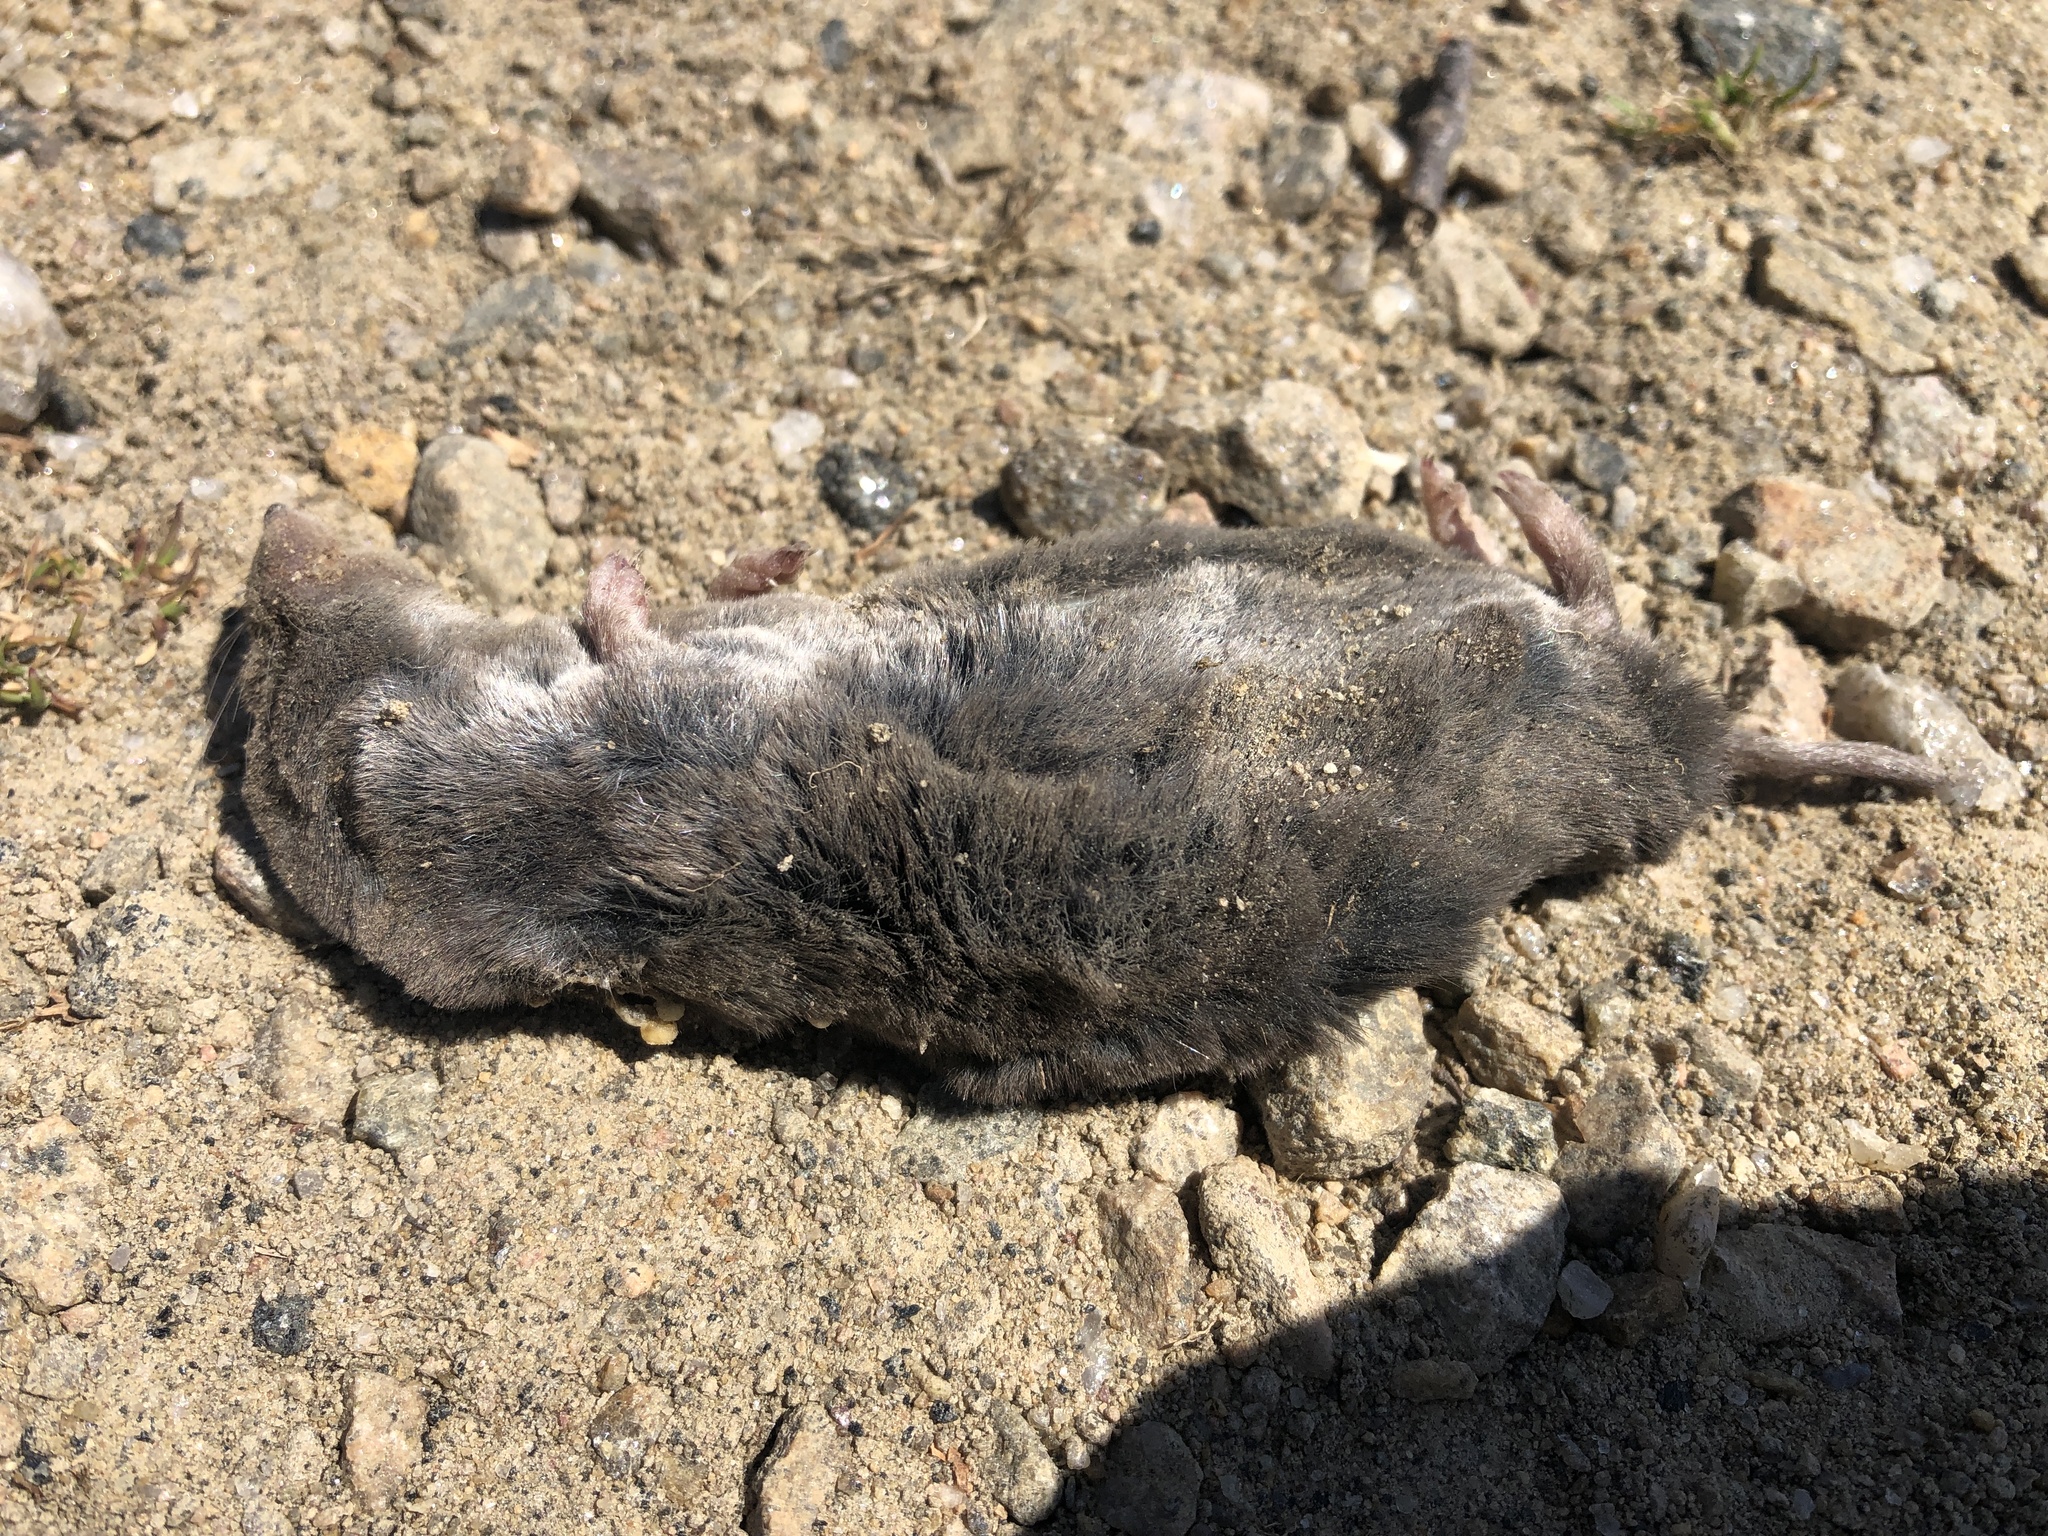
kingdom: Animalia
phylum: Chordata
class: Mammalia
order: Soricomorpha
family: Soricidae
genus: Blarina
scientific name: Blarina brevicauda
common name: Northern short-tailed shrew
